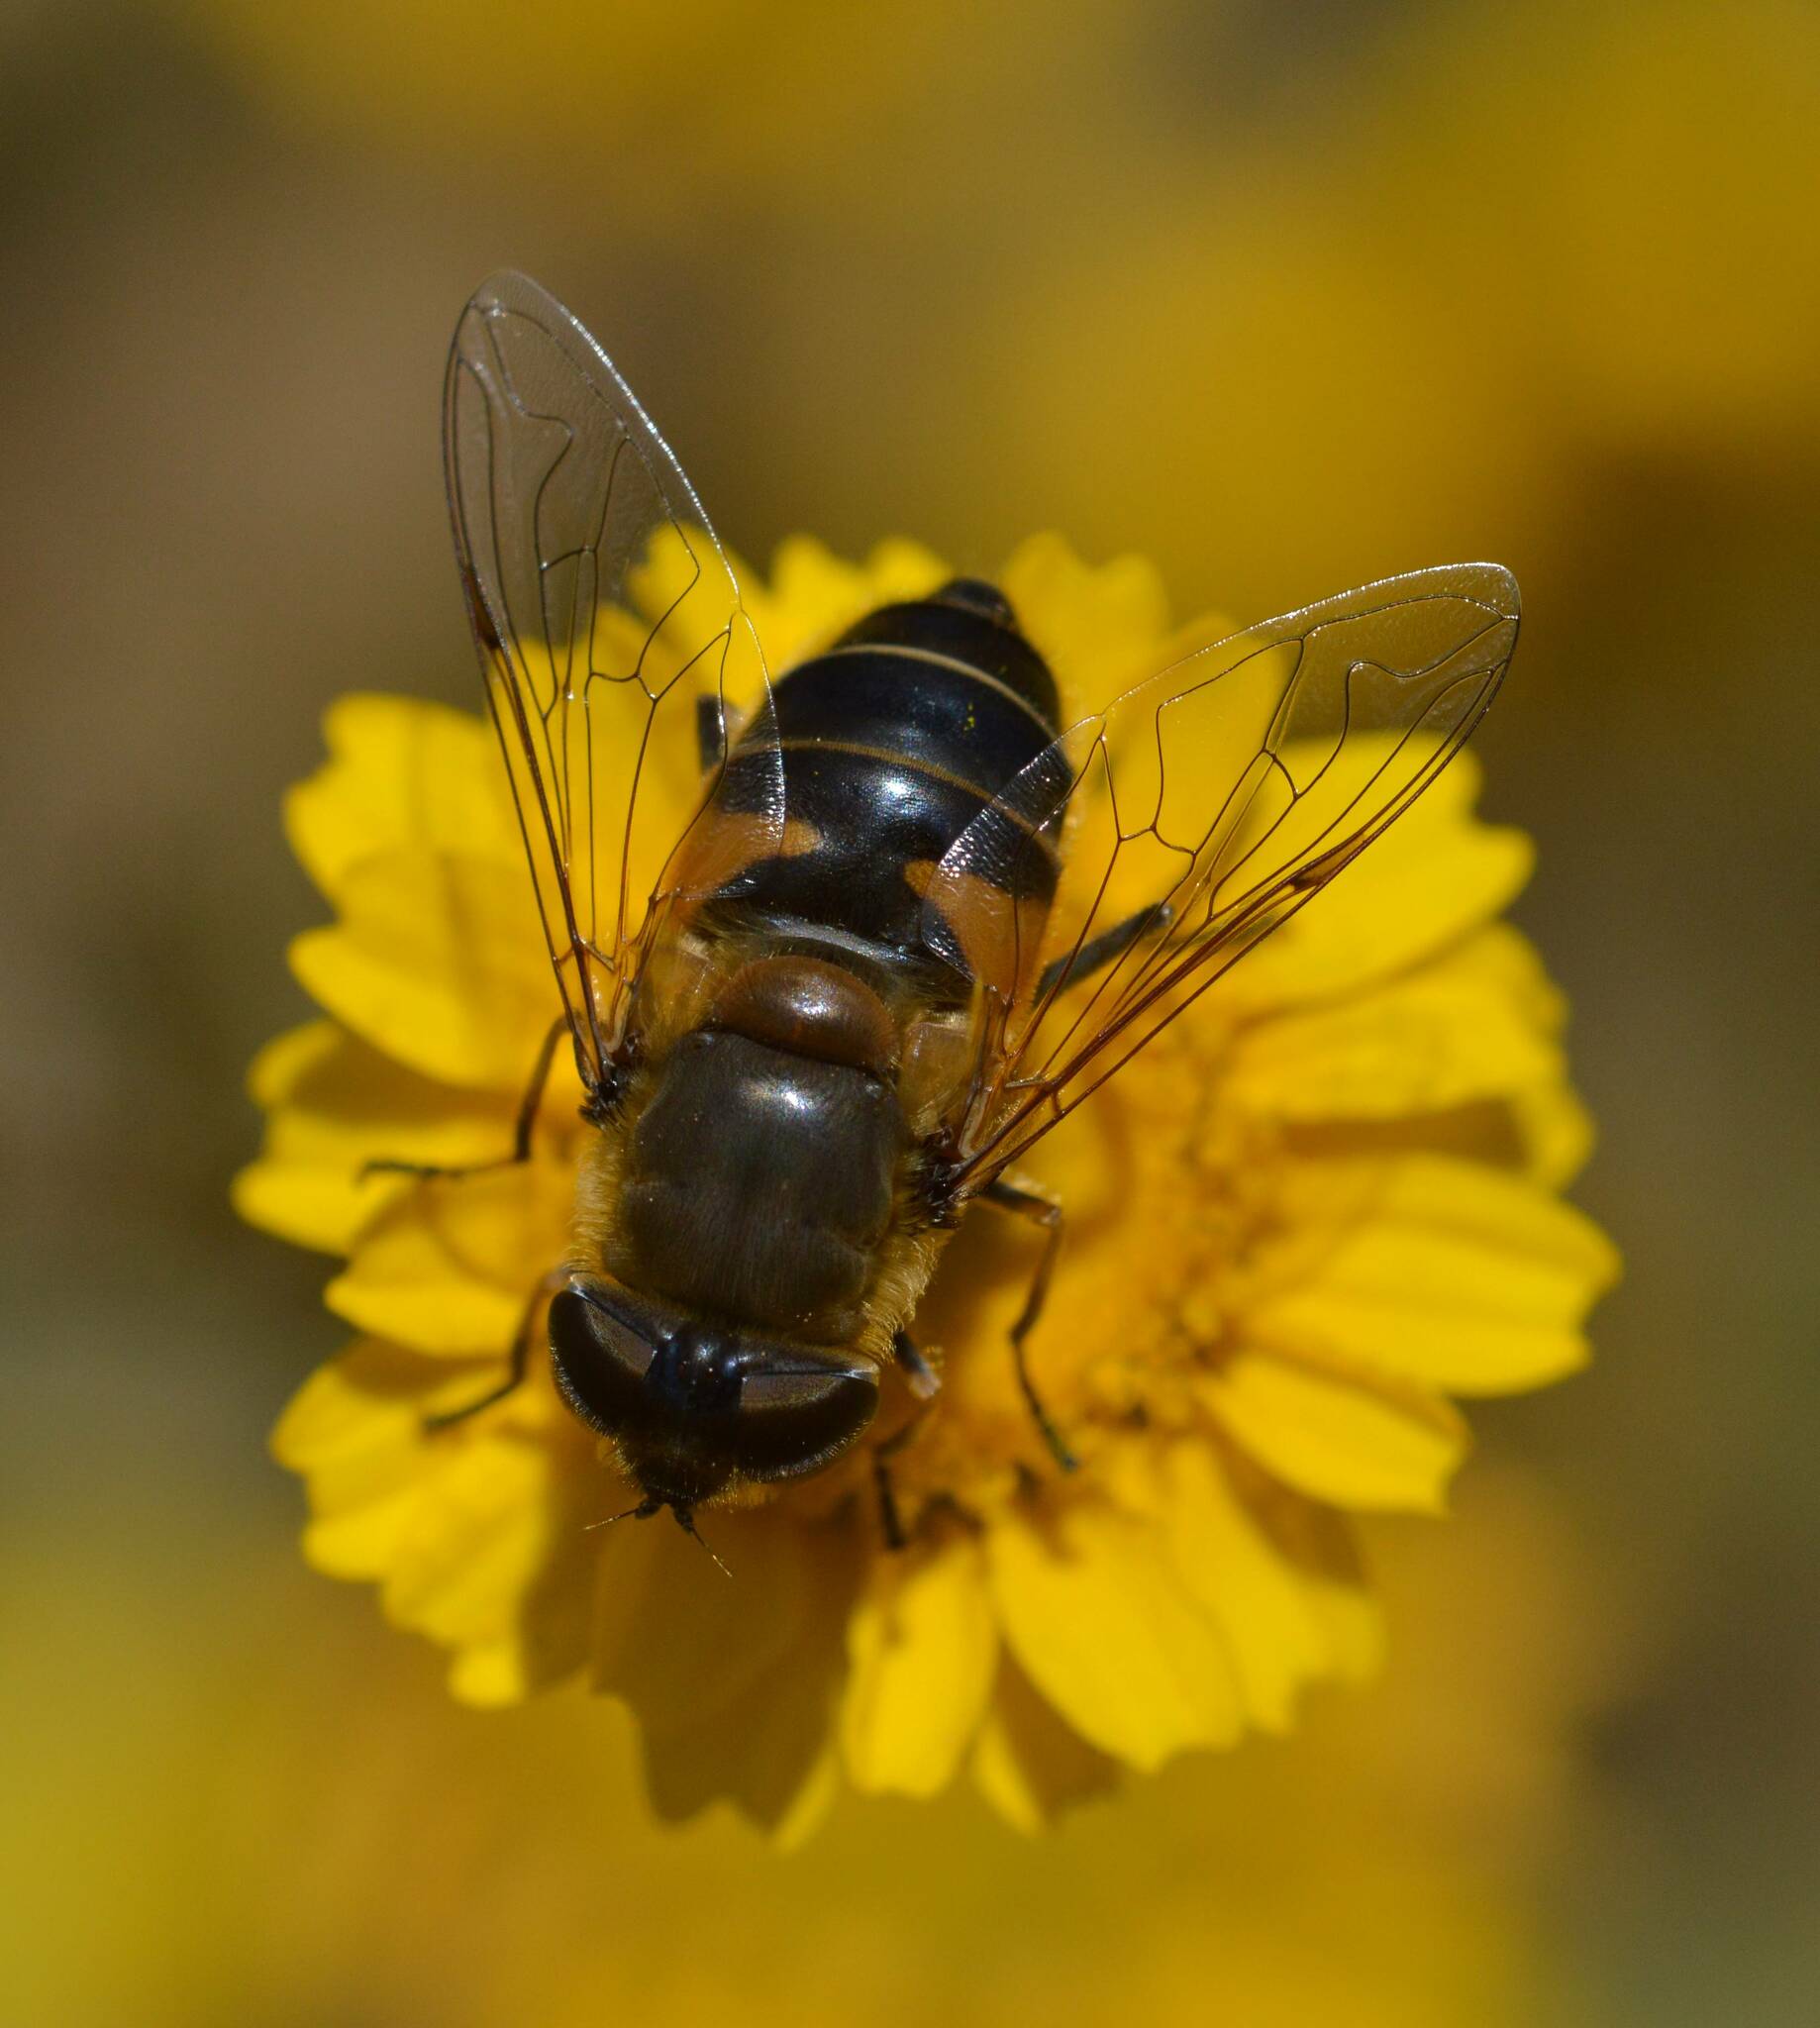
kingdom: Animalia
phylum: Arthropoda
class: Insecta
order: Diptera
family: Syrphidae
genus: Eristalis
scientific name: Eristalis pertinax
